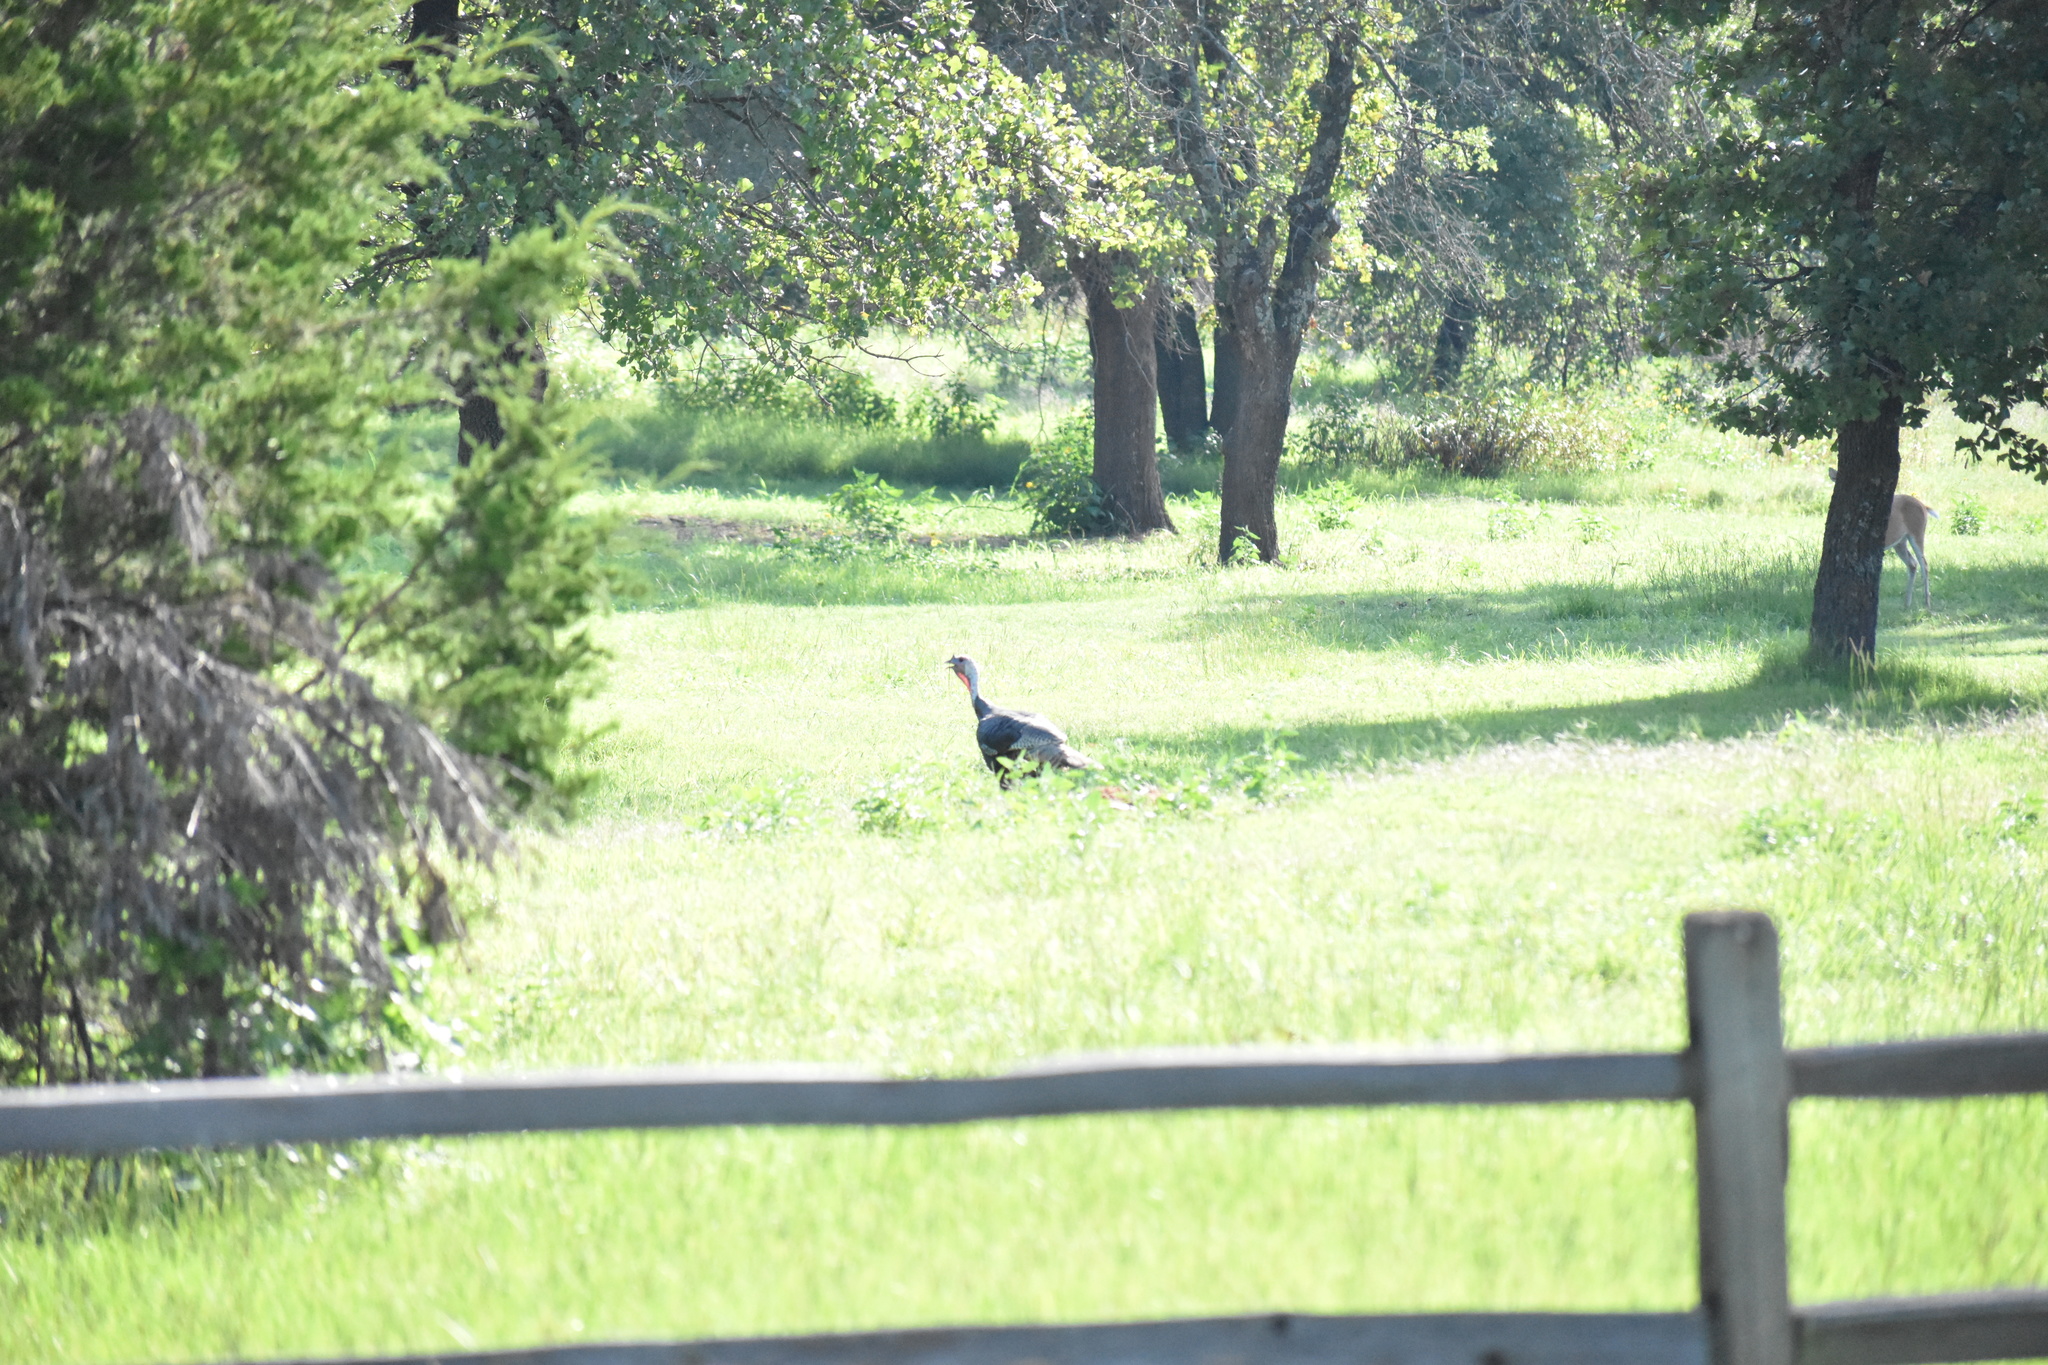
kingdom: Animalia
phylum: Chordata
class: Aves
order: Galliformes
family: Phasianidae
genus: Meleagris
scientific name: Meleagris gallopavo
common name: Wild turkey
